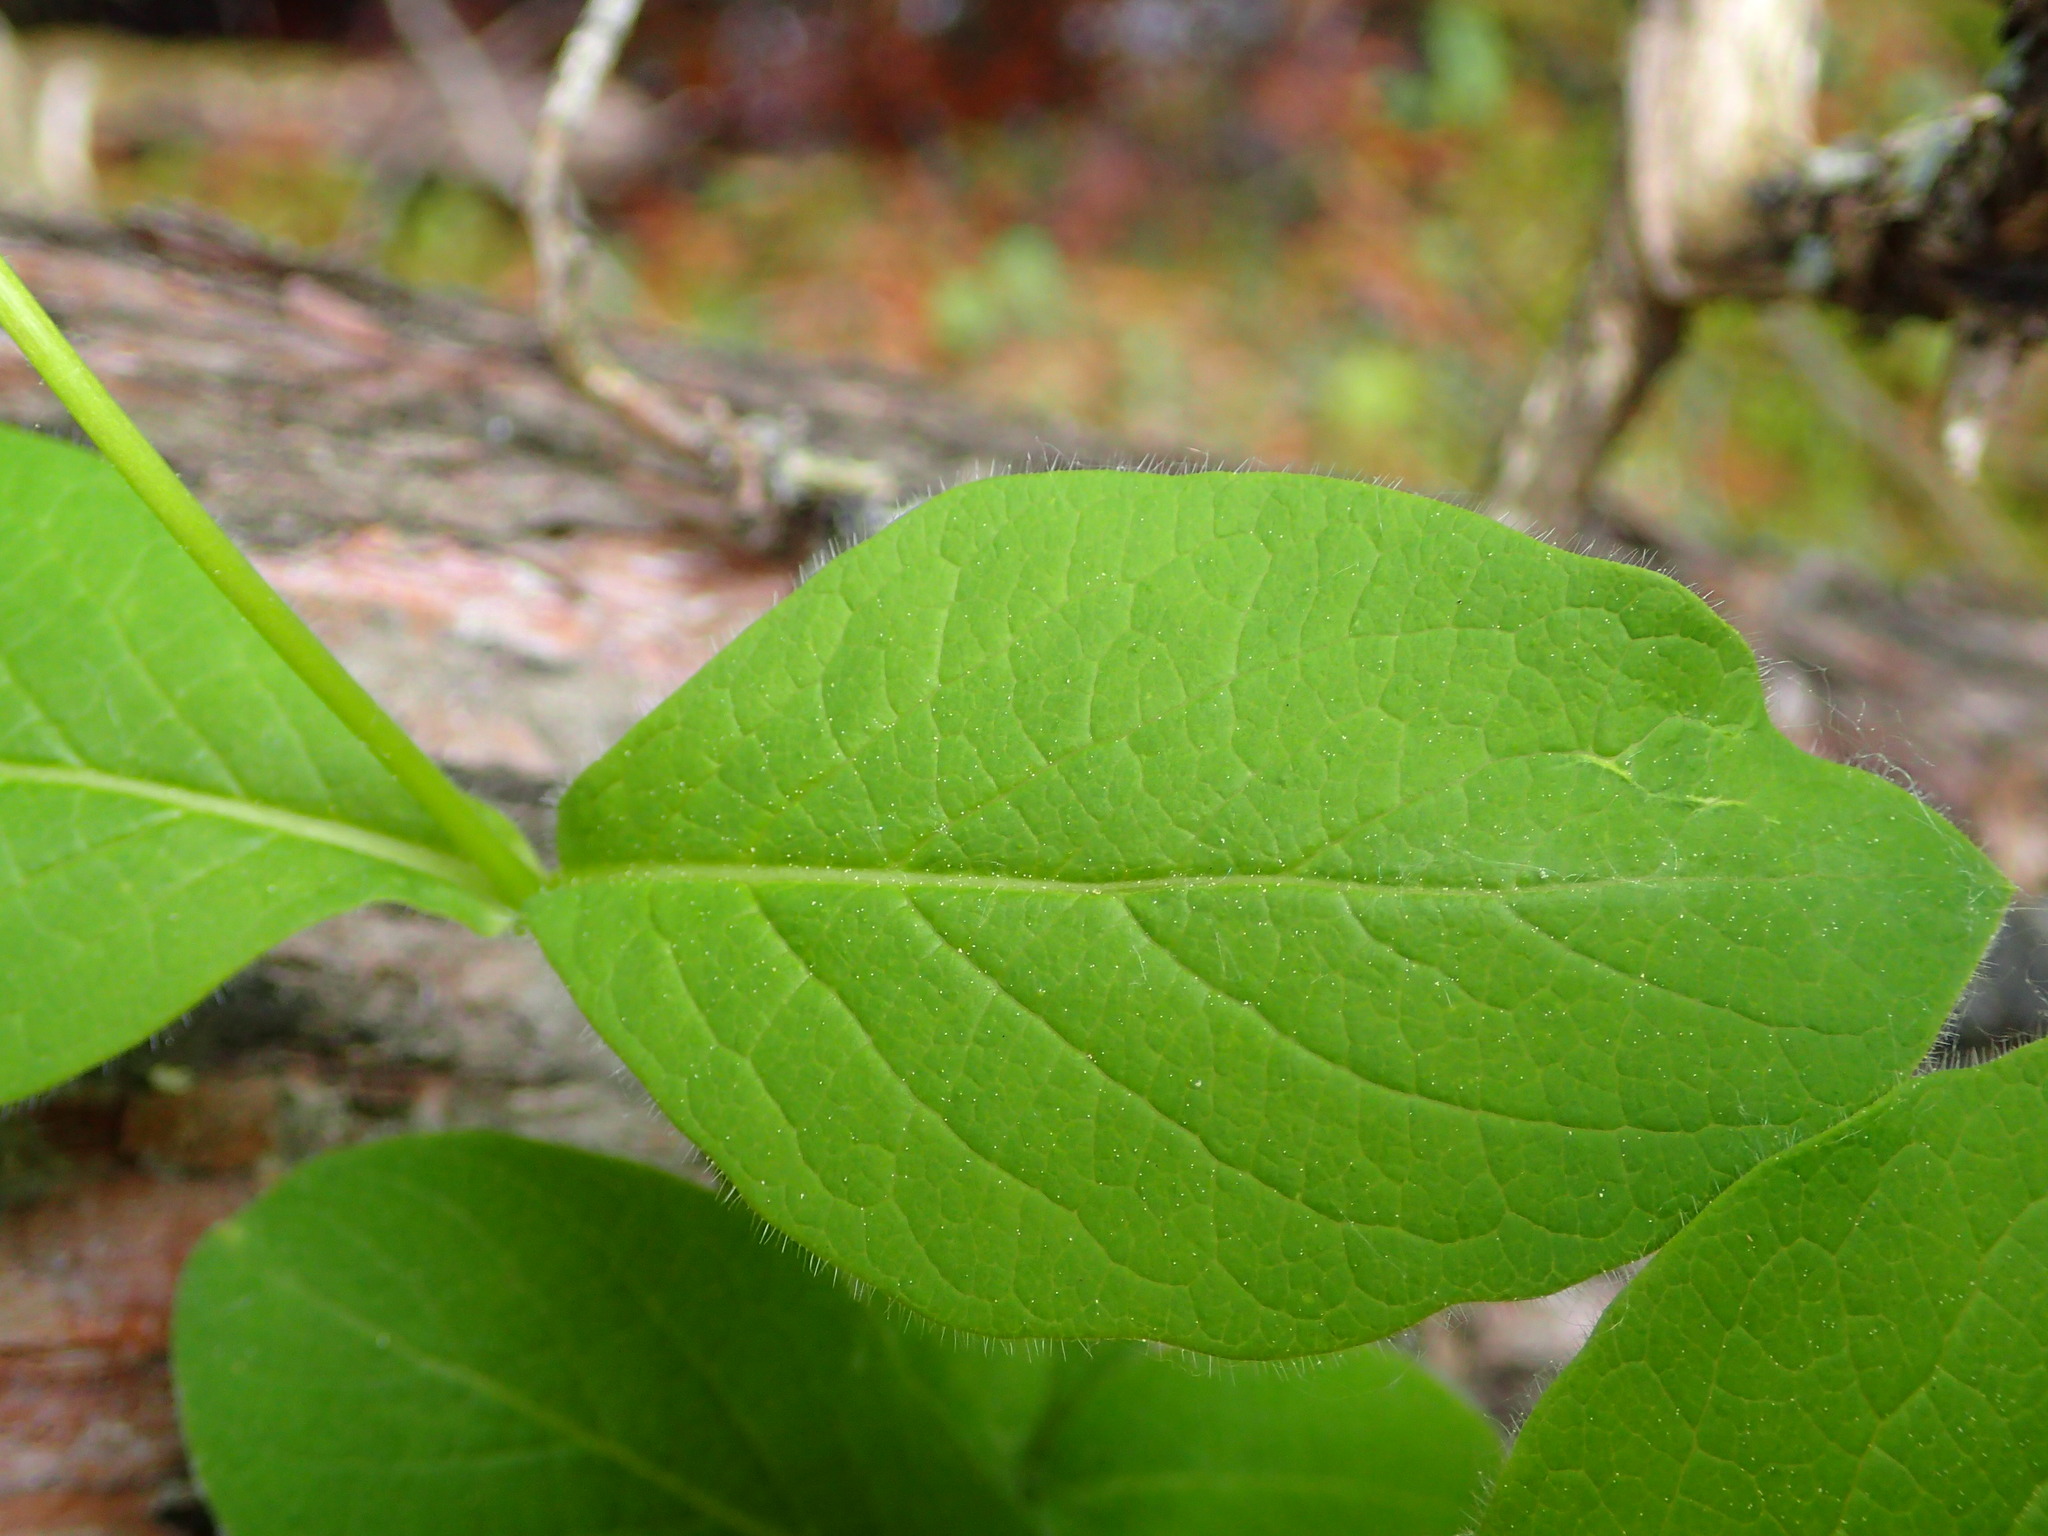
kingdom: Plantae
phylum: Tracheophyta
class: Magnoliopsida
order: Dipsacales
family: Caprifoliaceae
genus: Lonicera
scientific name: Lonicera hirsuta
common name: Hairy honeysuckle
